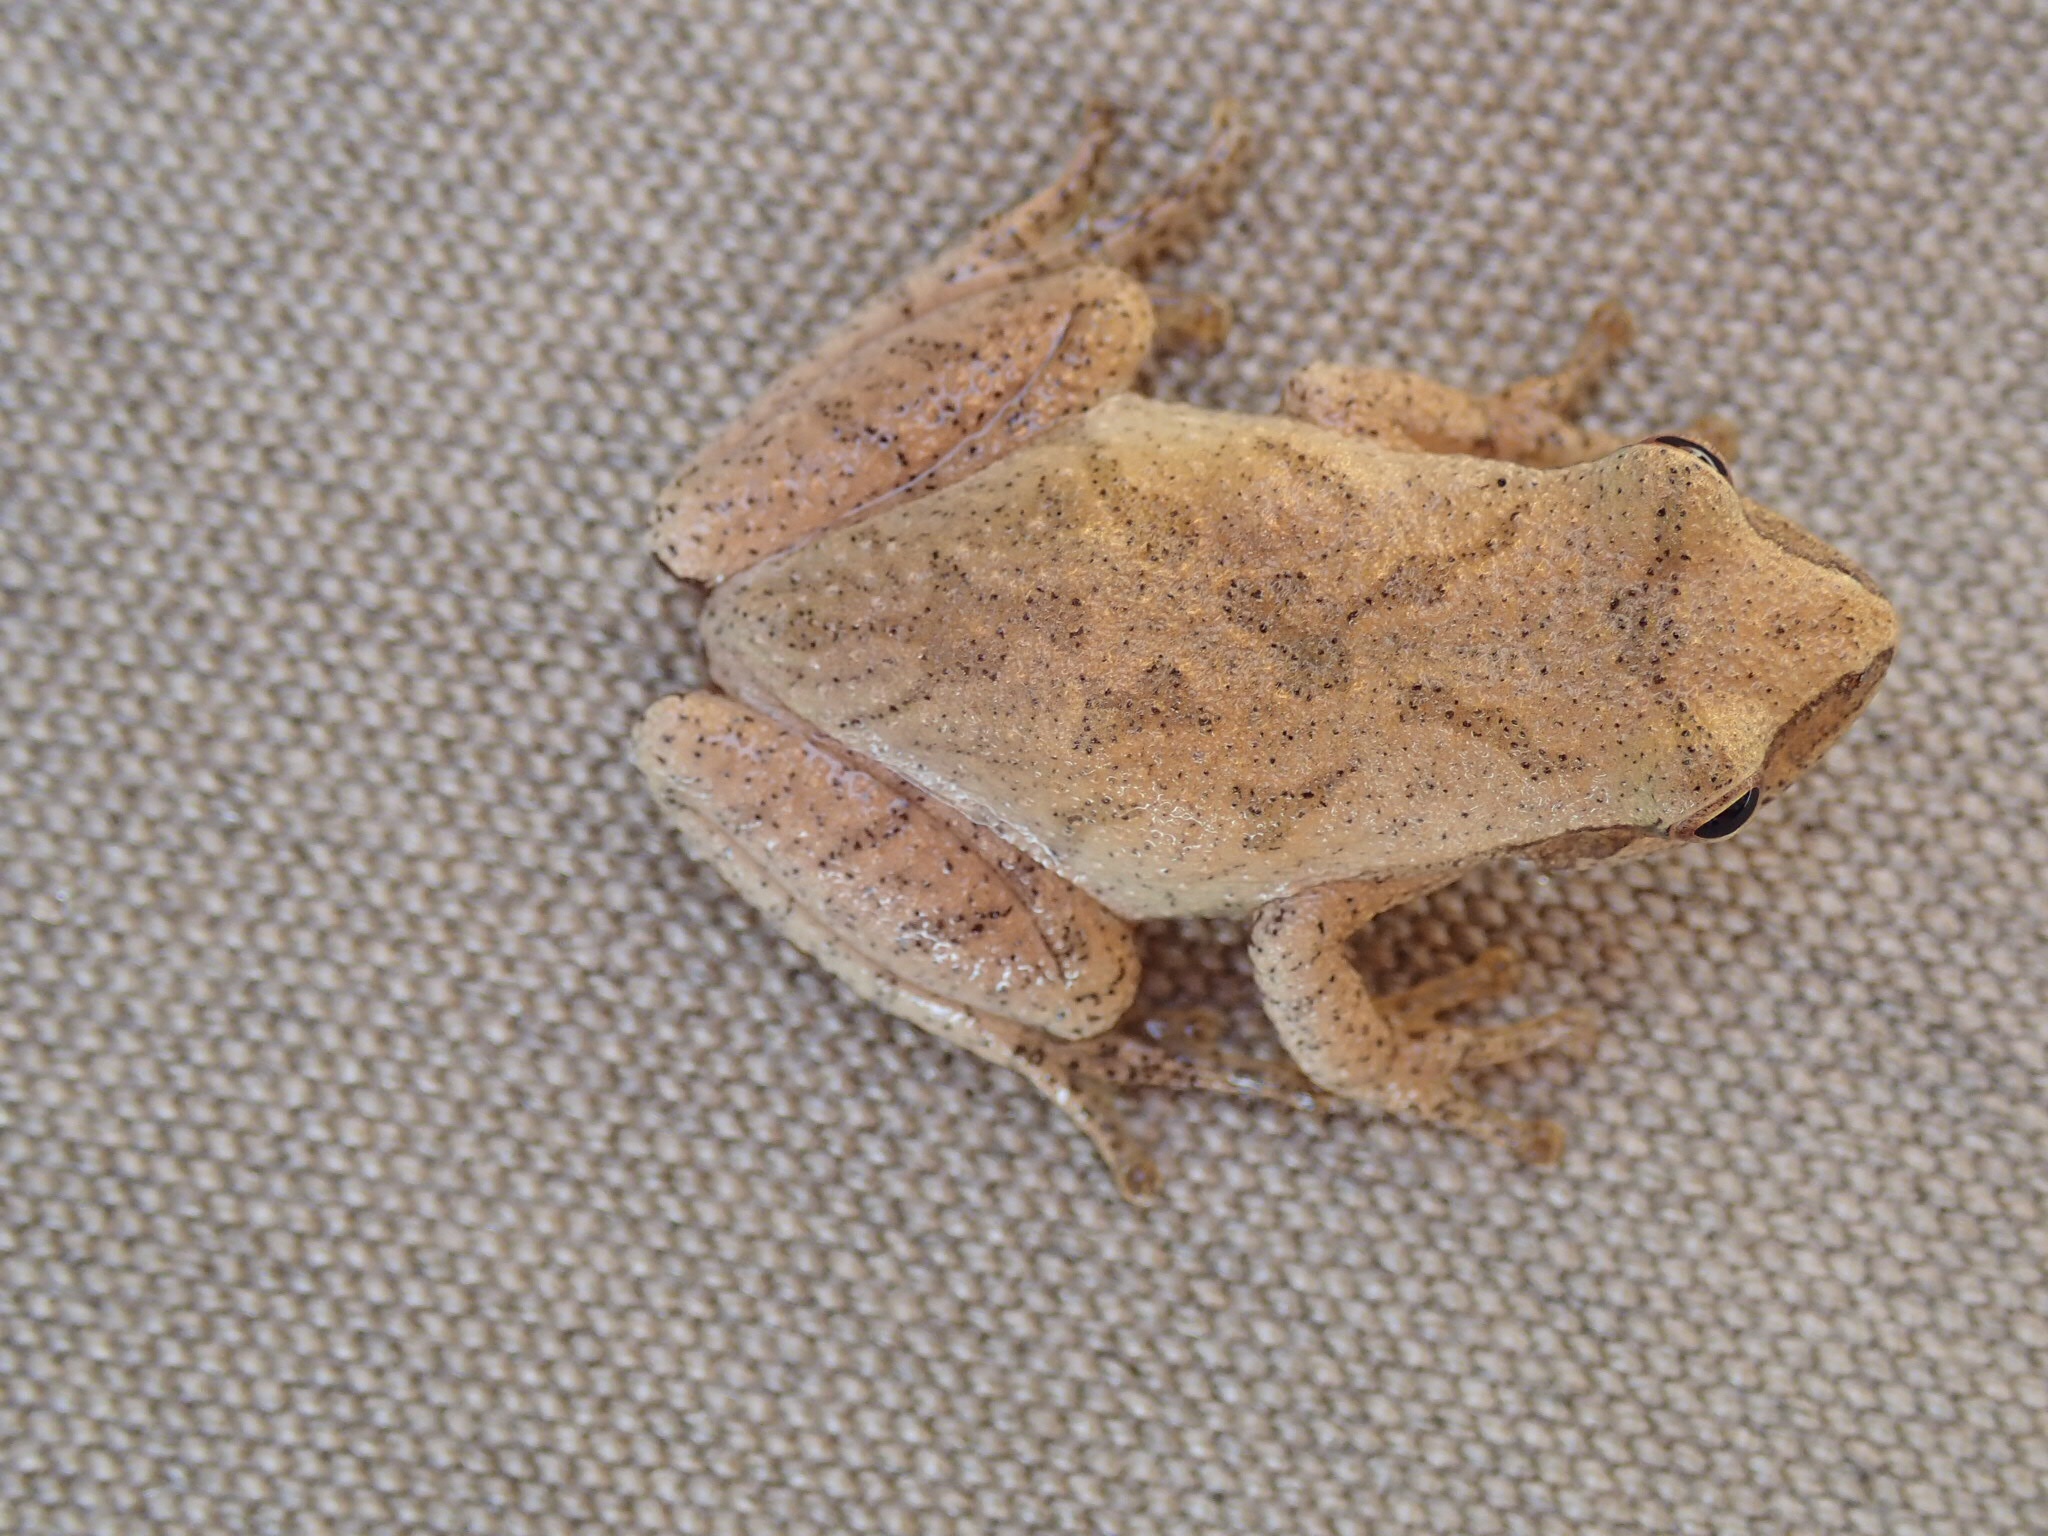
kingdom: Animalia
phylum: Chordata
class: Amphibia
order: Anura
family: Hylidae
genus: Pseudacris
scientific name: Pseudacris crucifer
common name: Spring peeper
